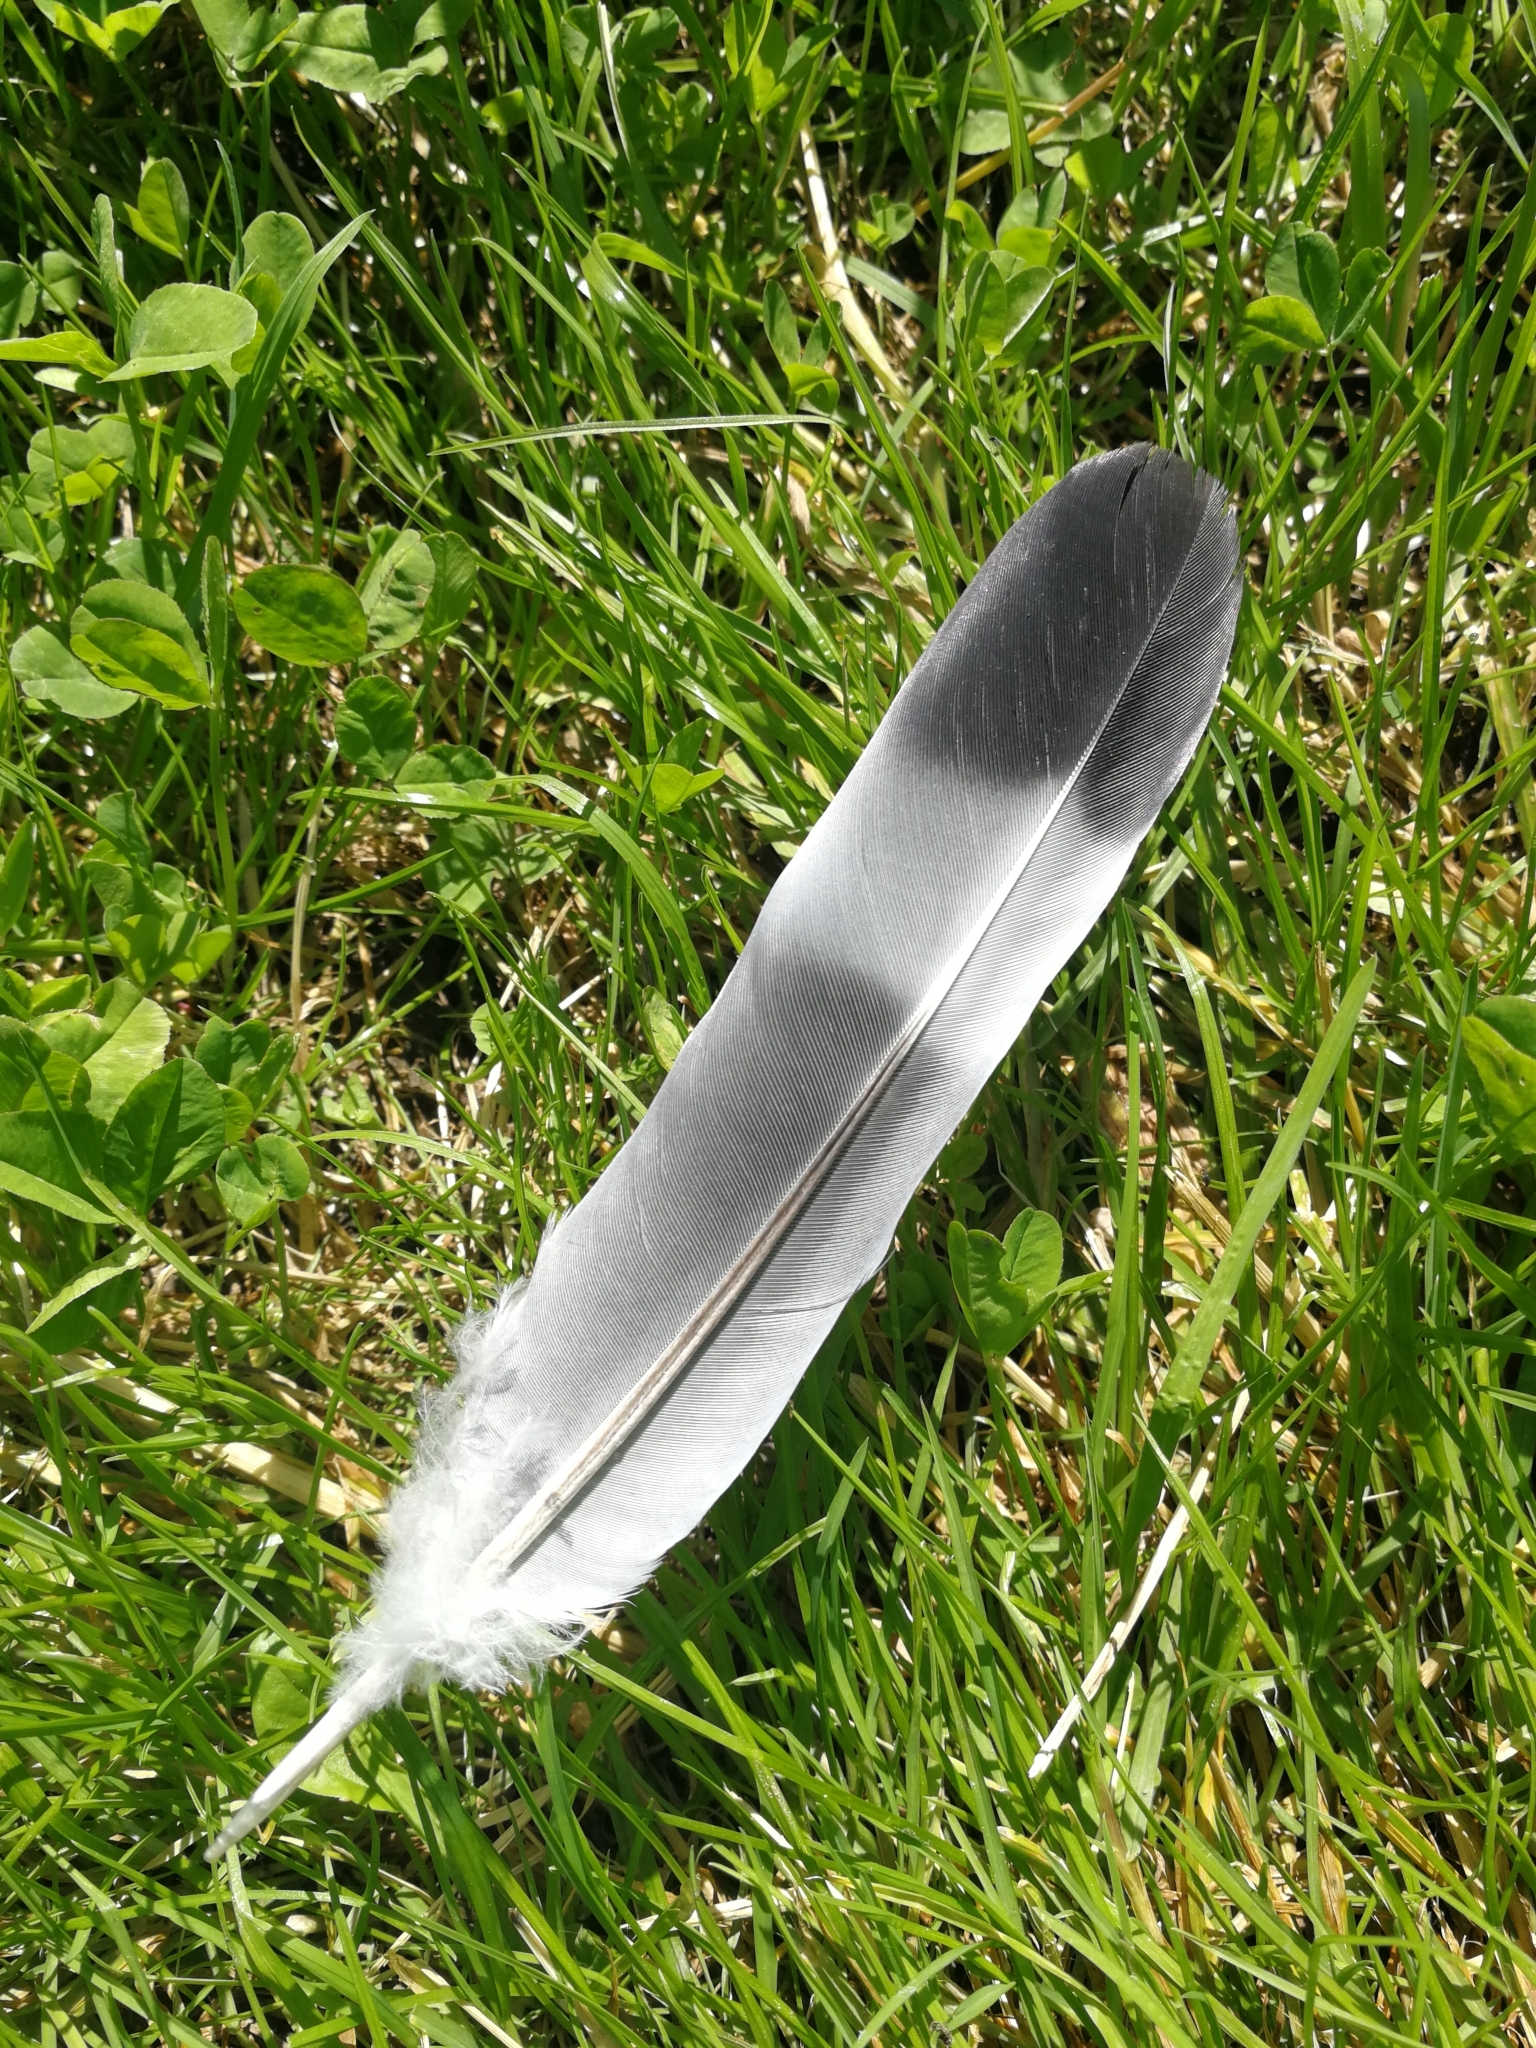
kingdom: Animalia
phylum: Chordata
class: Aves
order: Columbiformes
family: Columbidae
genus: Columba
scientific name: Columba palumbus
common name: Common wood pigeon
